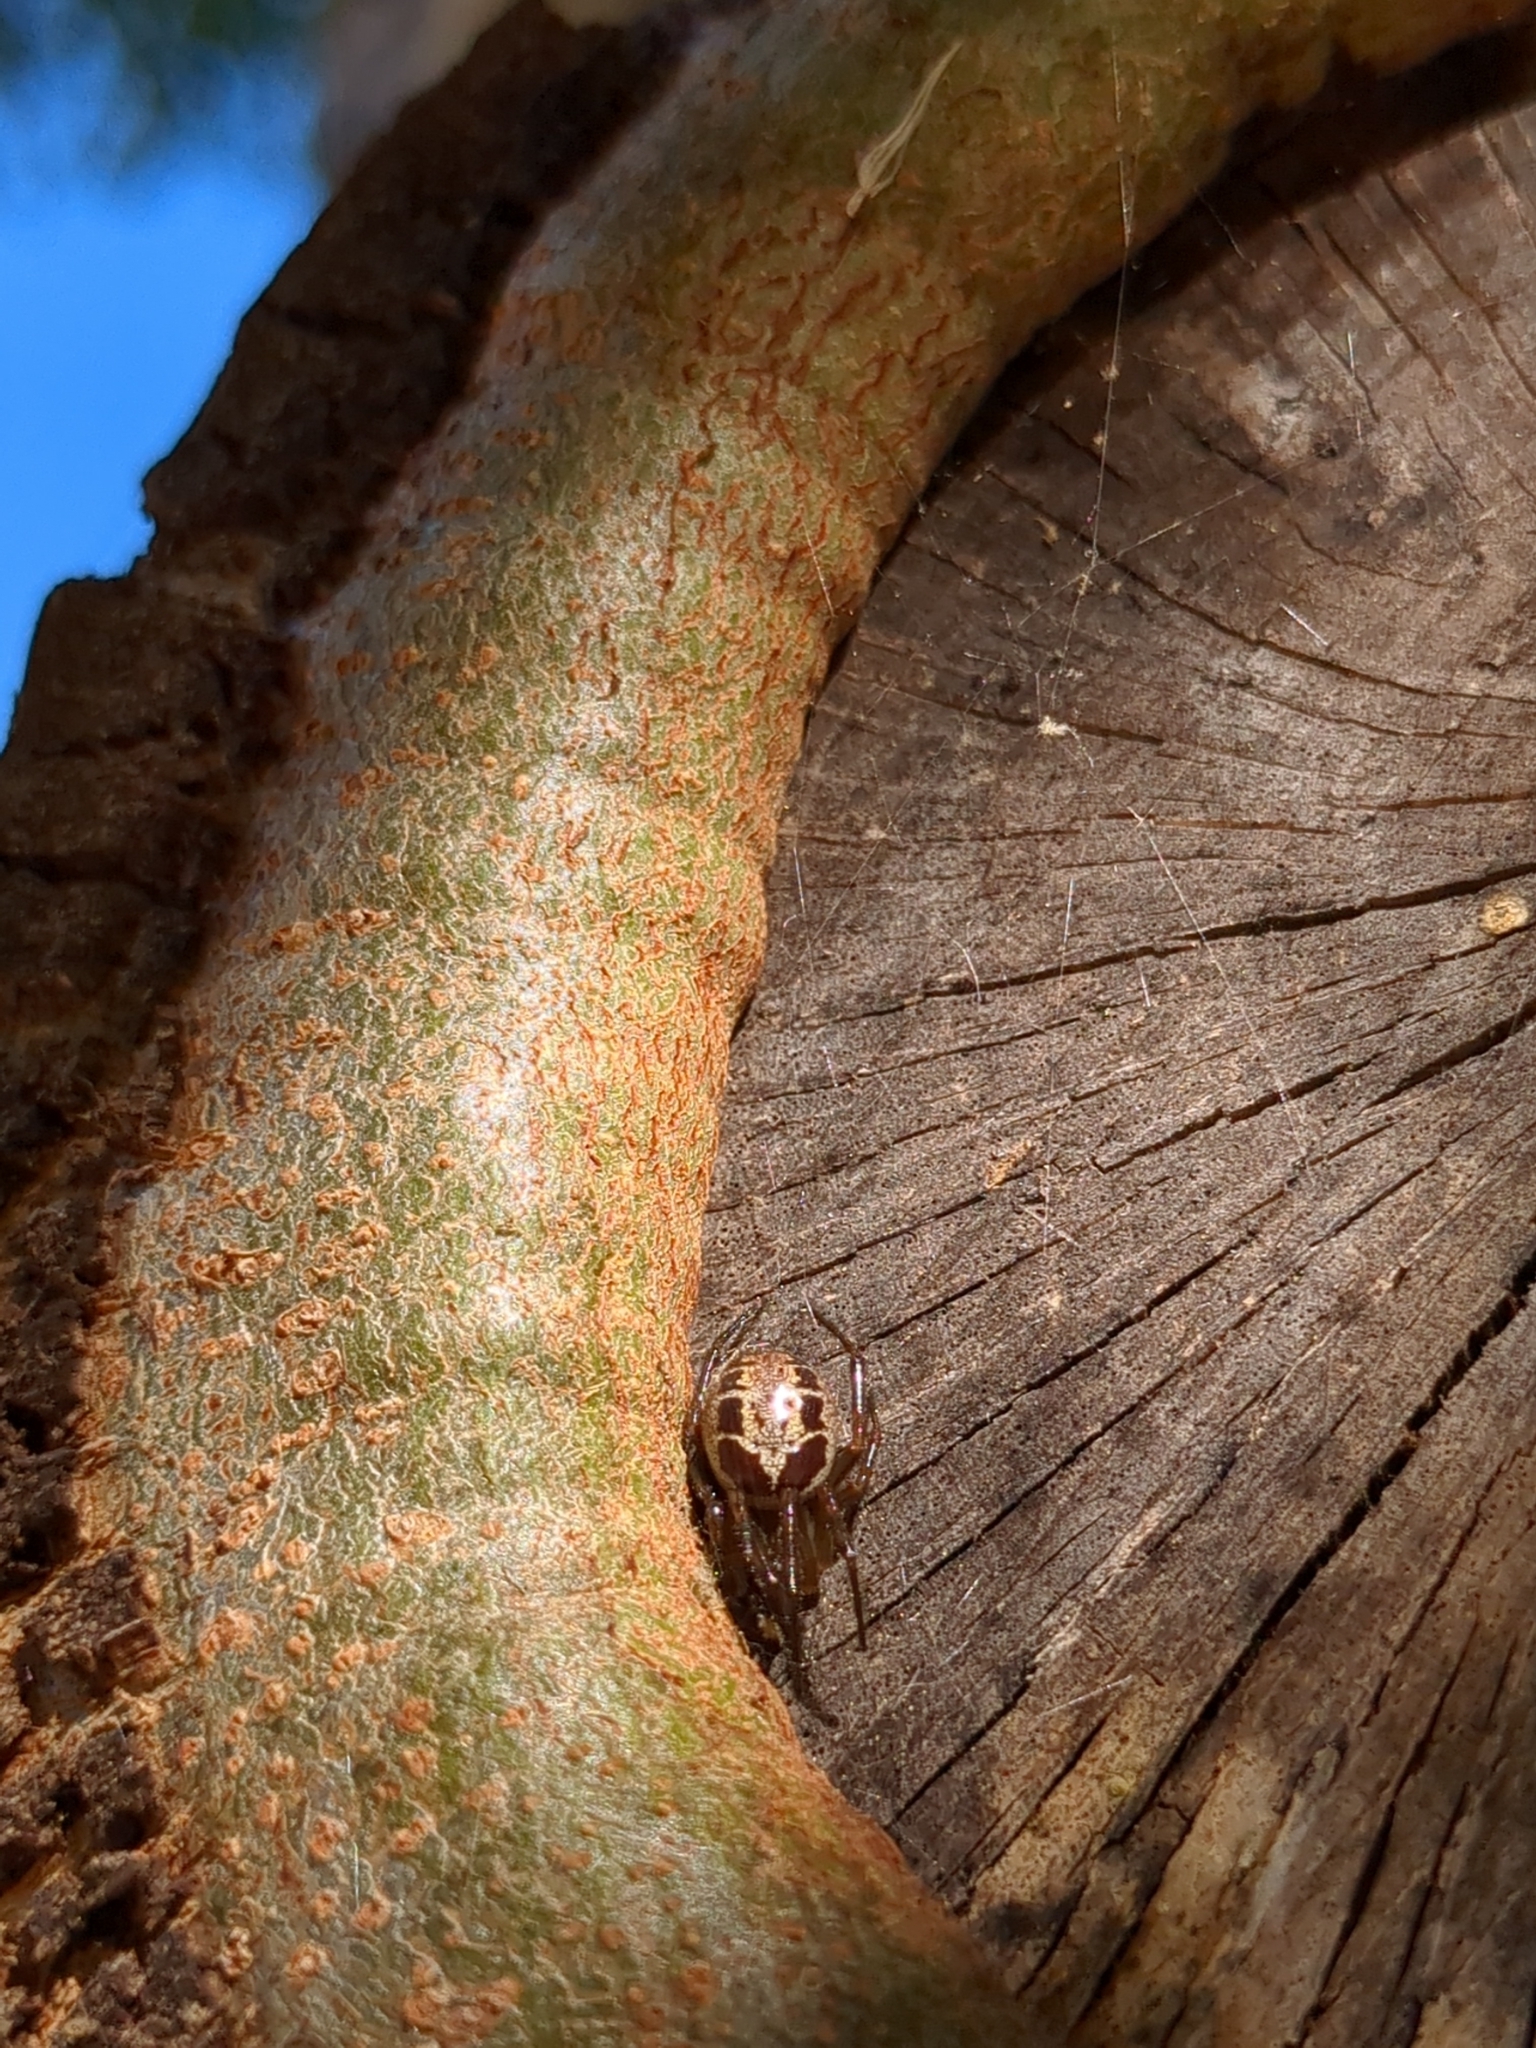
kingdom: Animalia
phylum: Arthropoda
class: Arachnida
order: Araneae
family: Theridiidae
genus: Steatoda
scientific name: Steatoda nobilis
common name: Cobweb weaver
